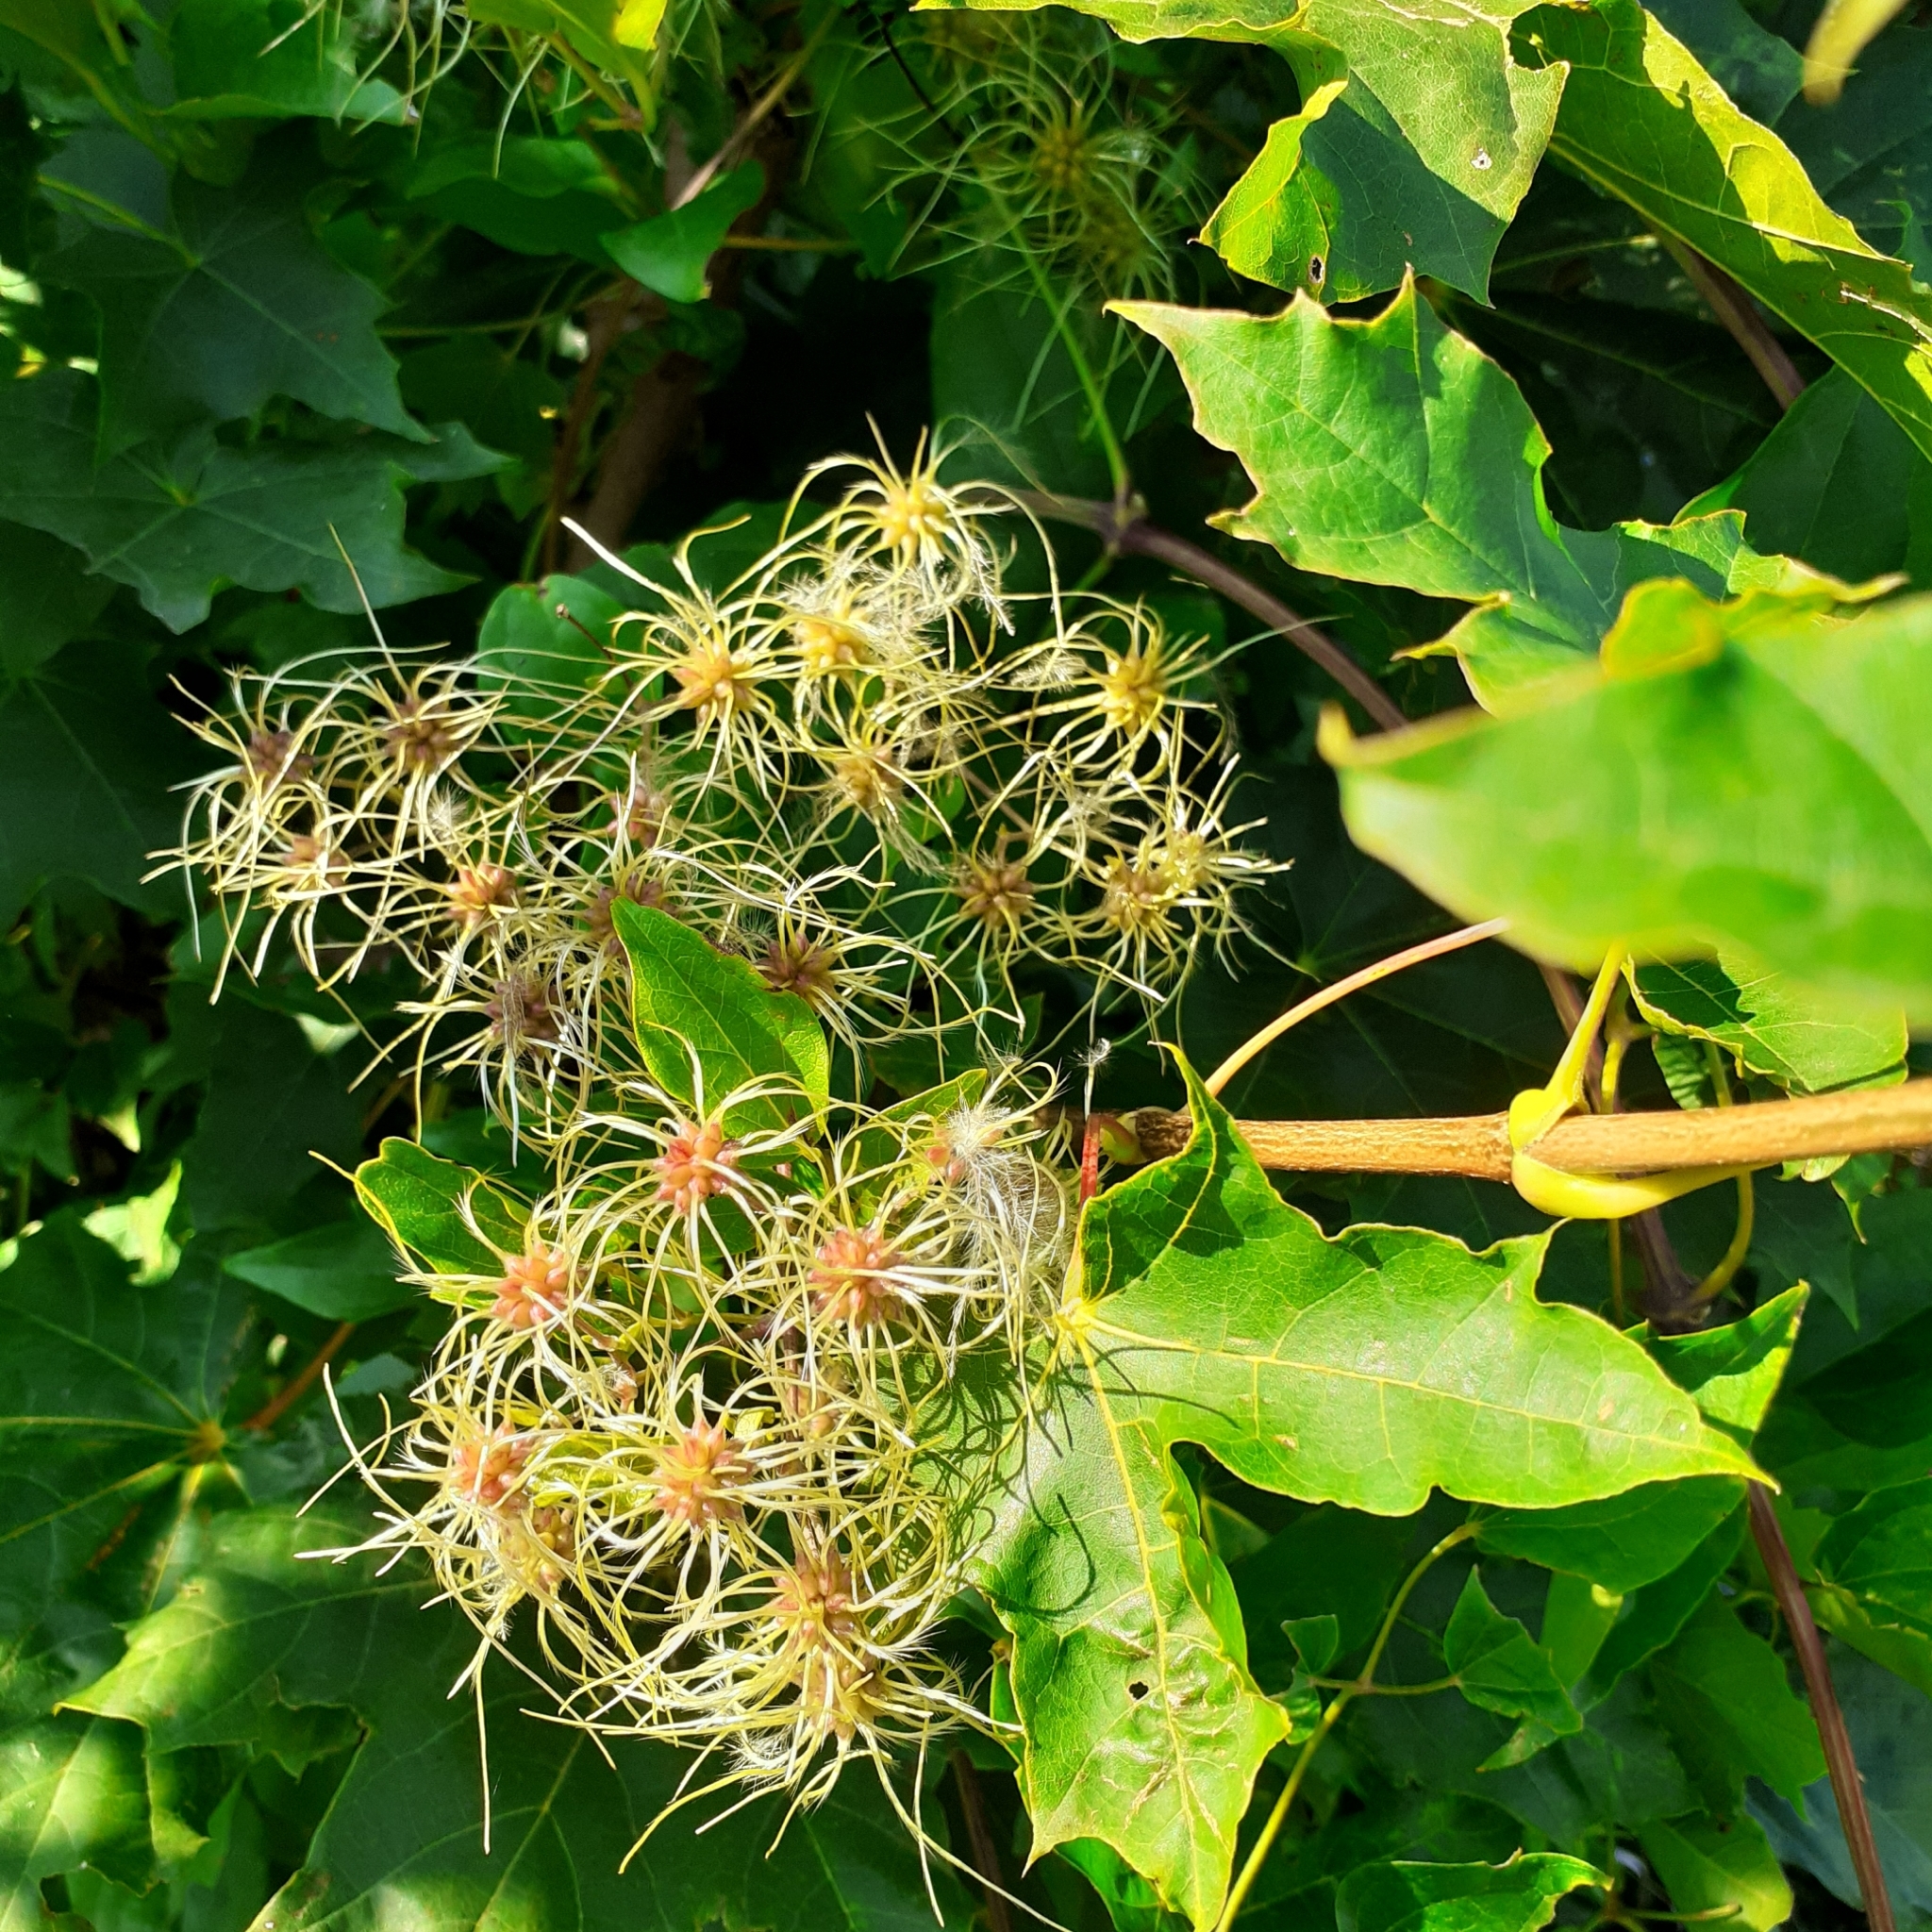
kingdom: Plantae
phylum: Tracheophyta
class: Magnoliopsida
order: Ranunculales
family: Ranunculaceae
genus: Clematis
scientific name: Clematis vitalba
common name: Evergreen clematis
